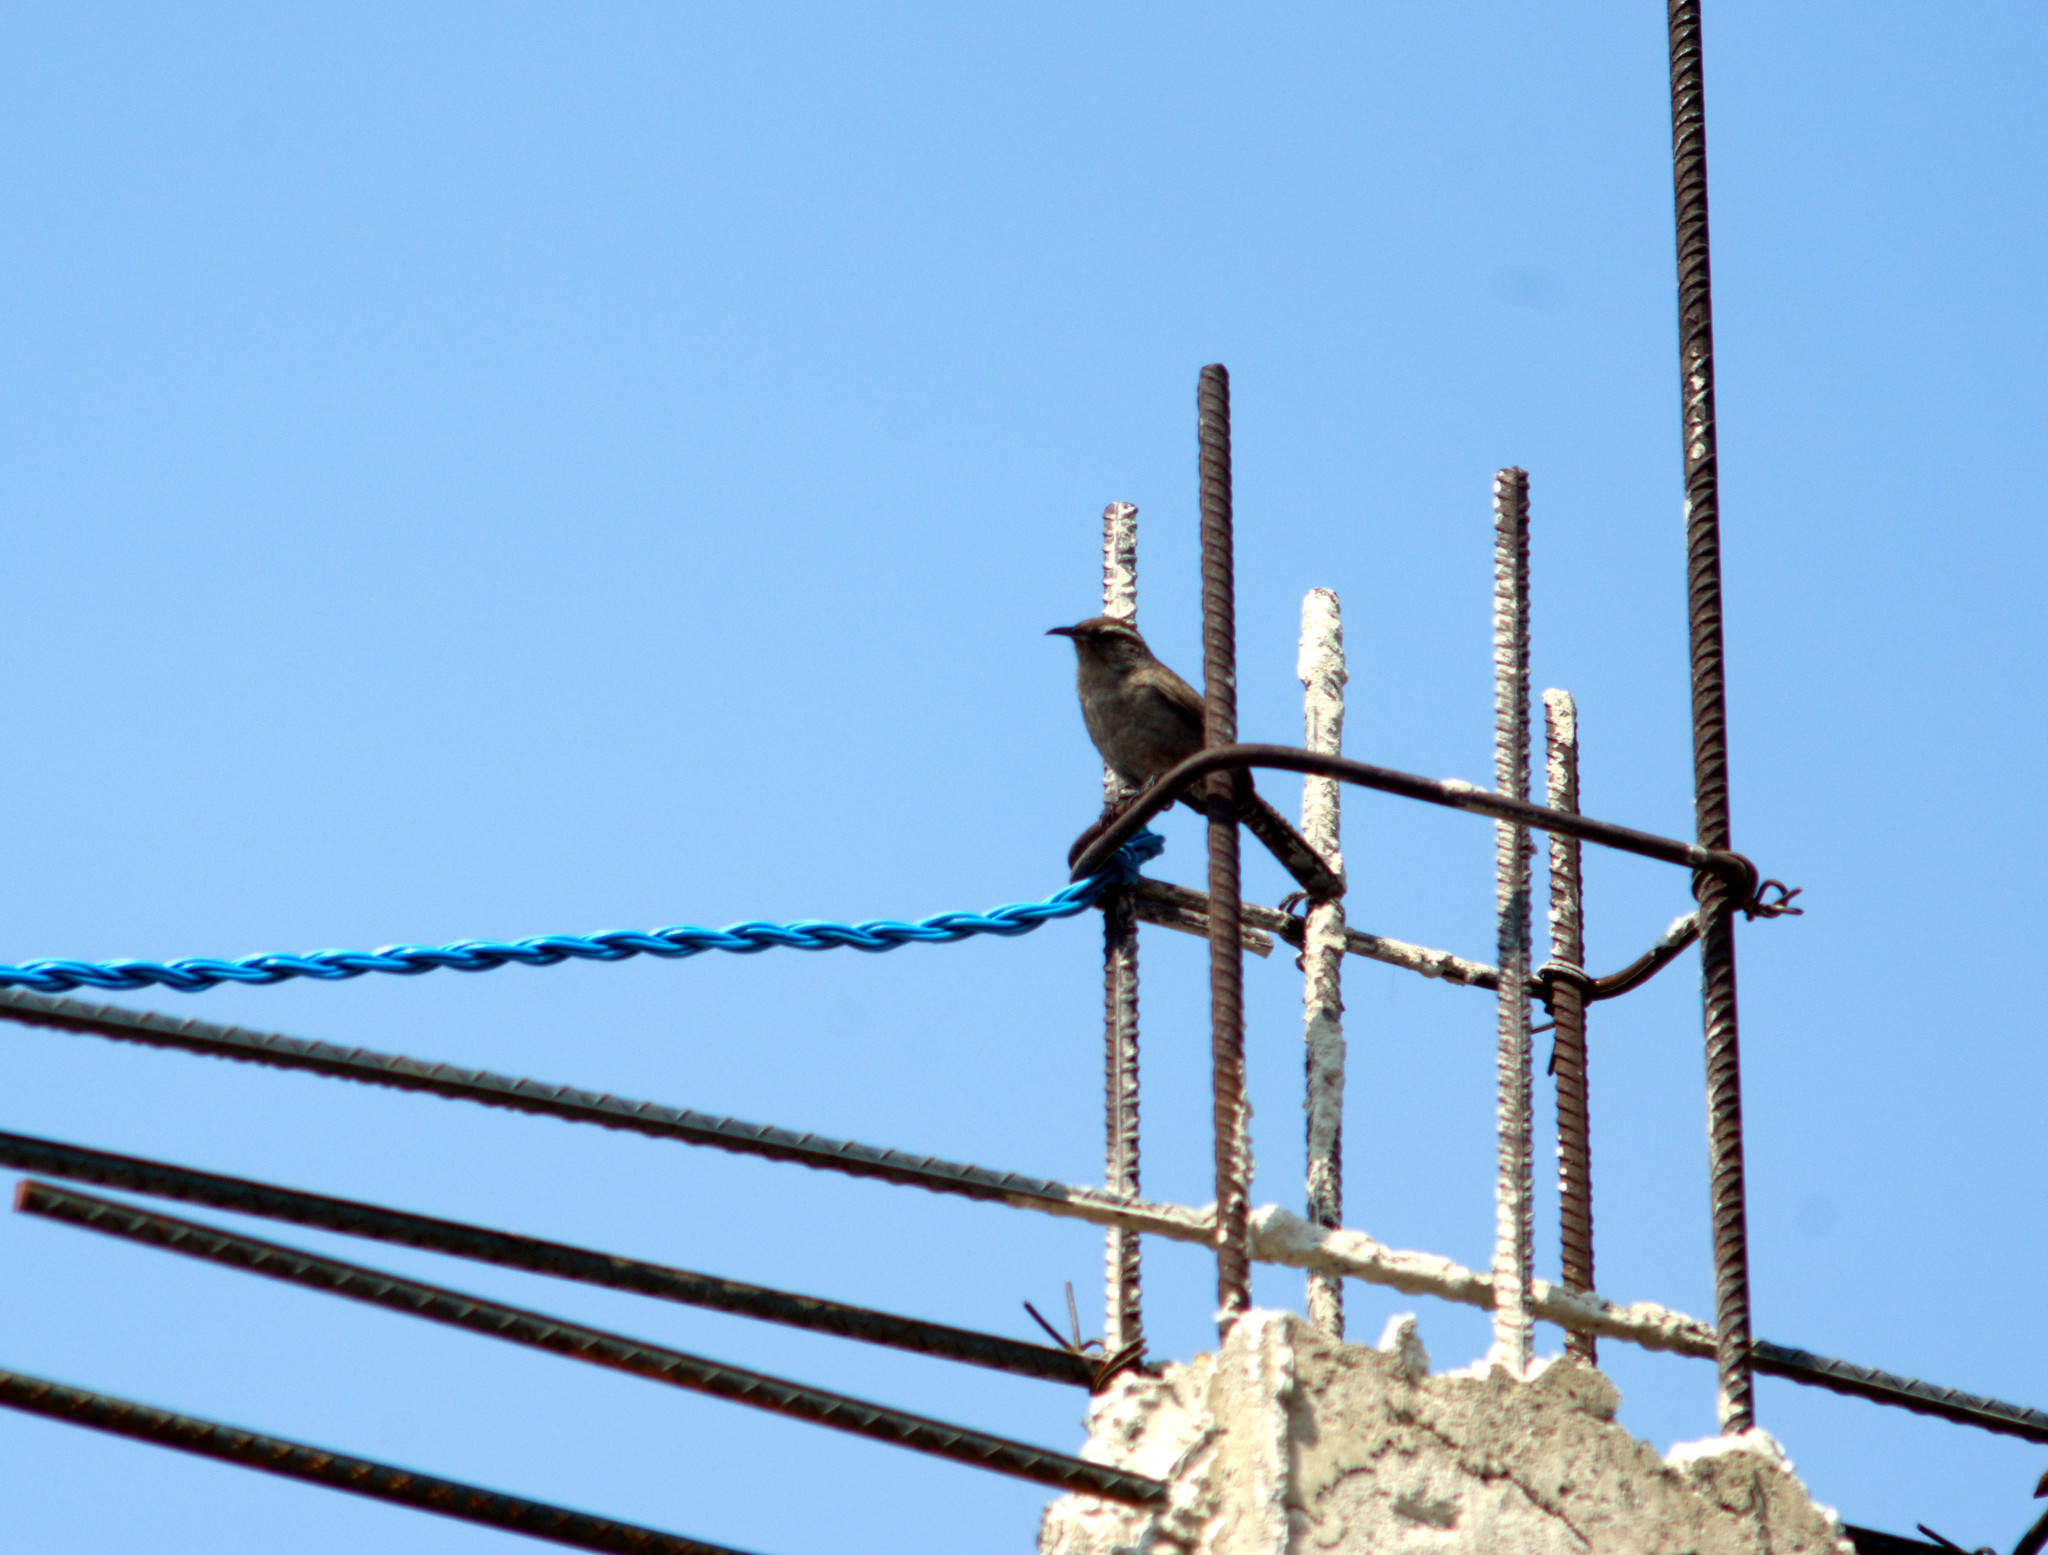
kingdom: Animalia
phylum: Chordata
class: Aves
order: Passeriformes
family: Troglodytidae
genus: Thryomanes
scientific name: Thryomanes bewickii
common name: Bewick's wren
